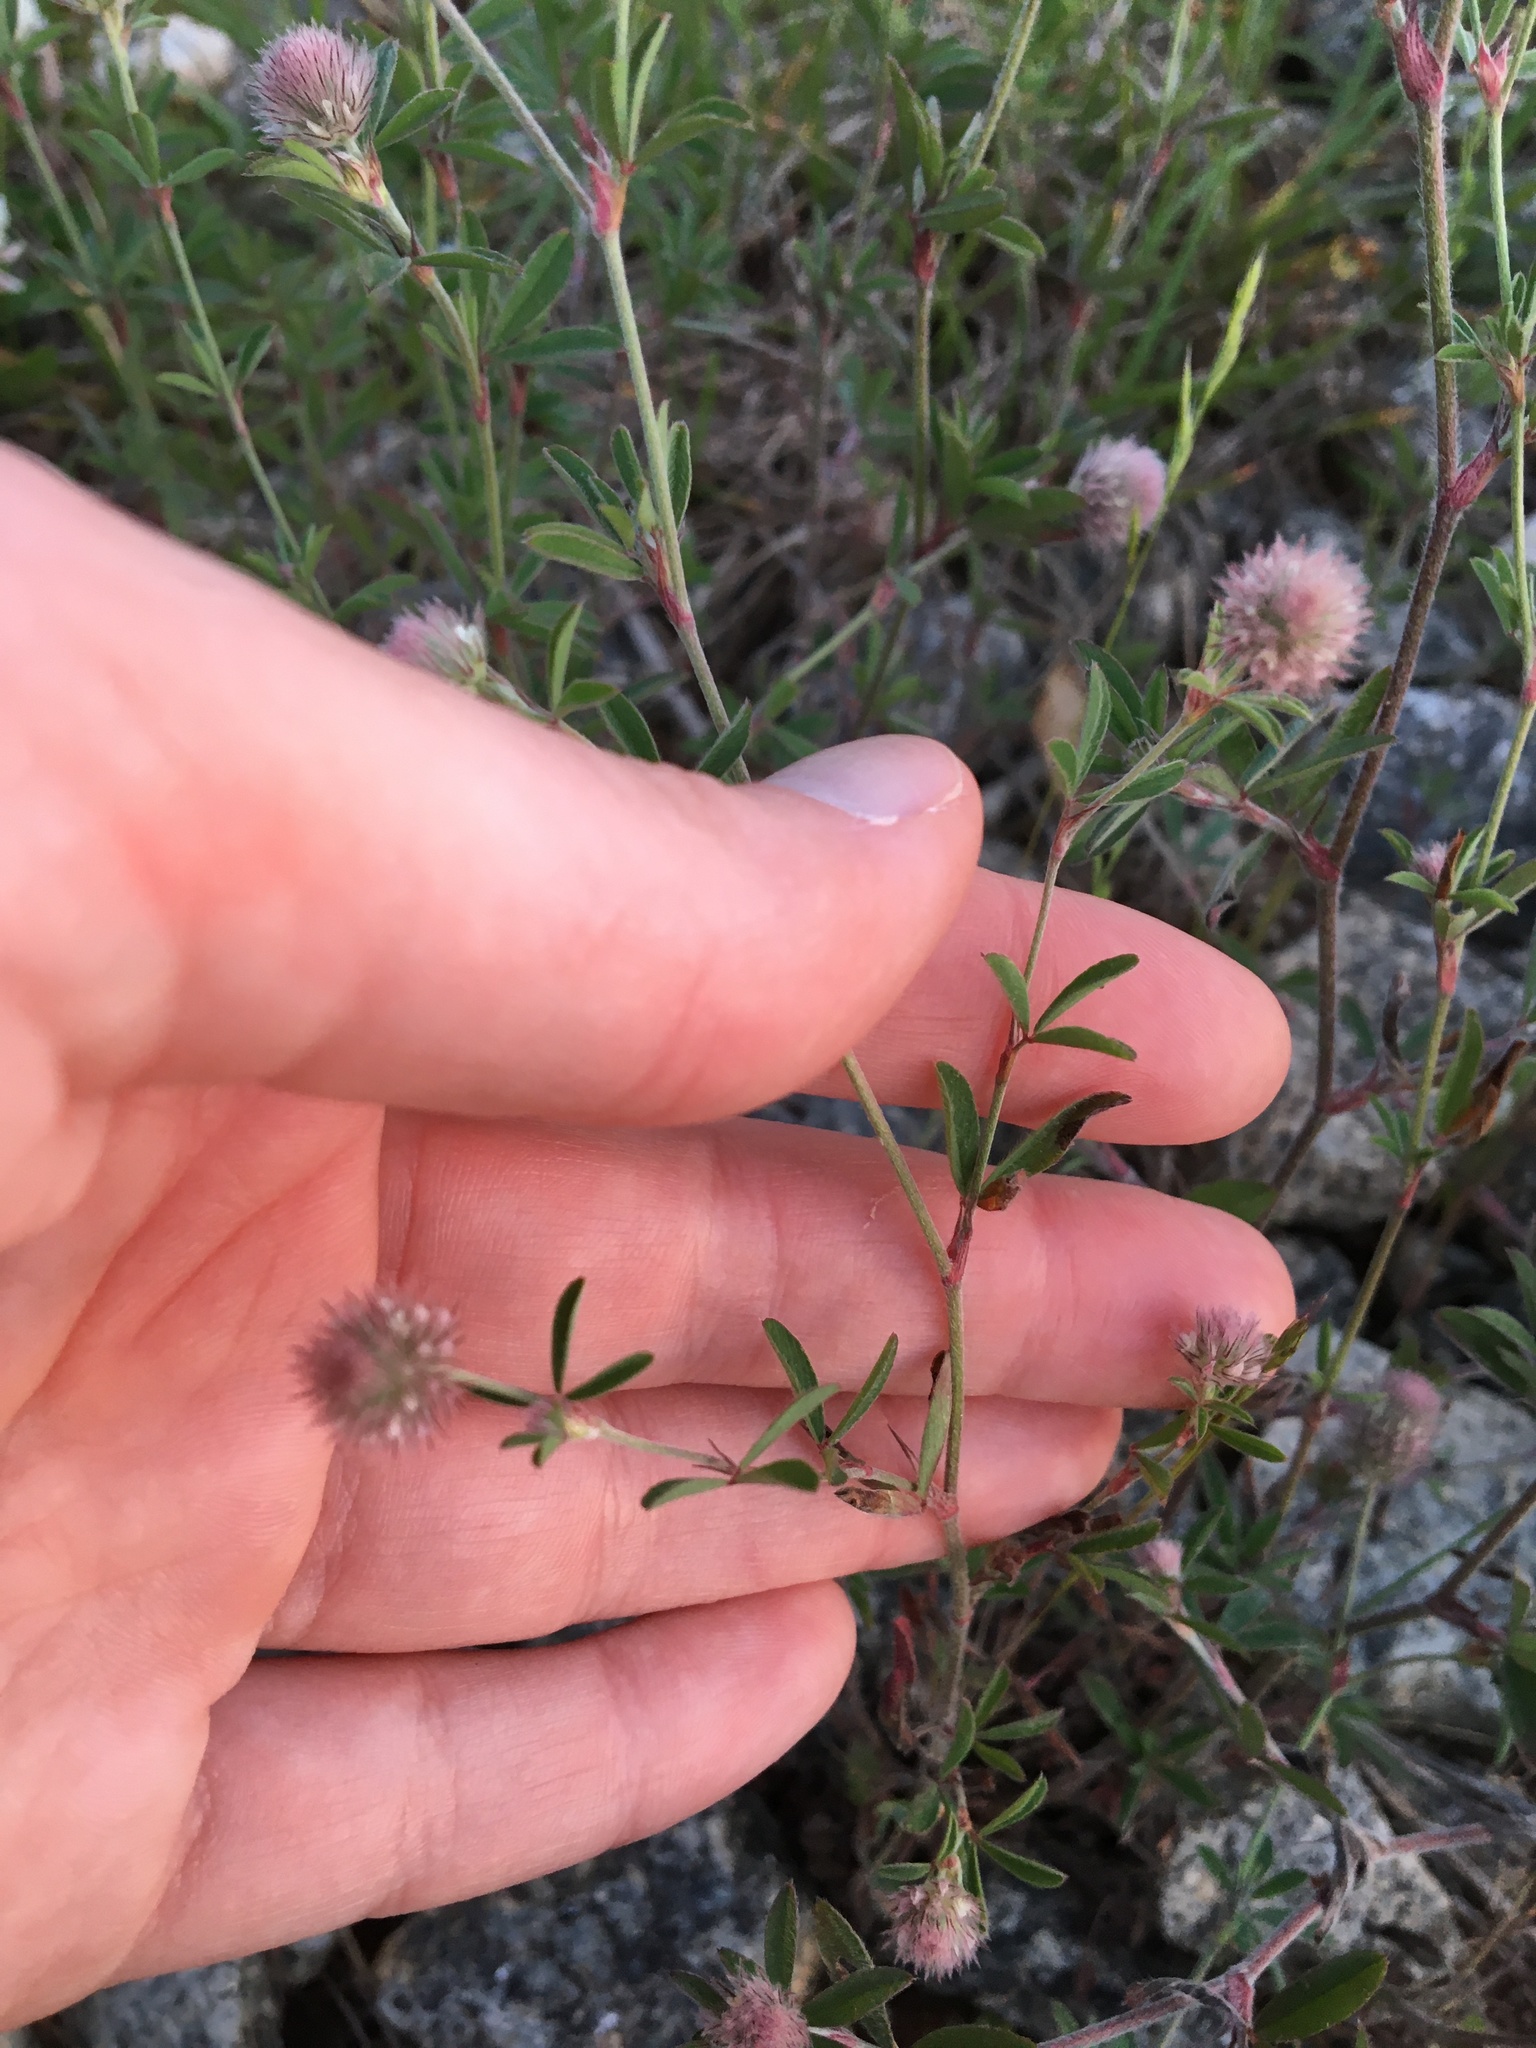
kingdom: Plantae
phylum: Tracheophyta
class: Magnoliopsida
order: Fabales
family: Fabaceae
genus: Trifolium
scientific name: Trifolium arvense
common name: Hare's-foot clover
